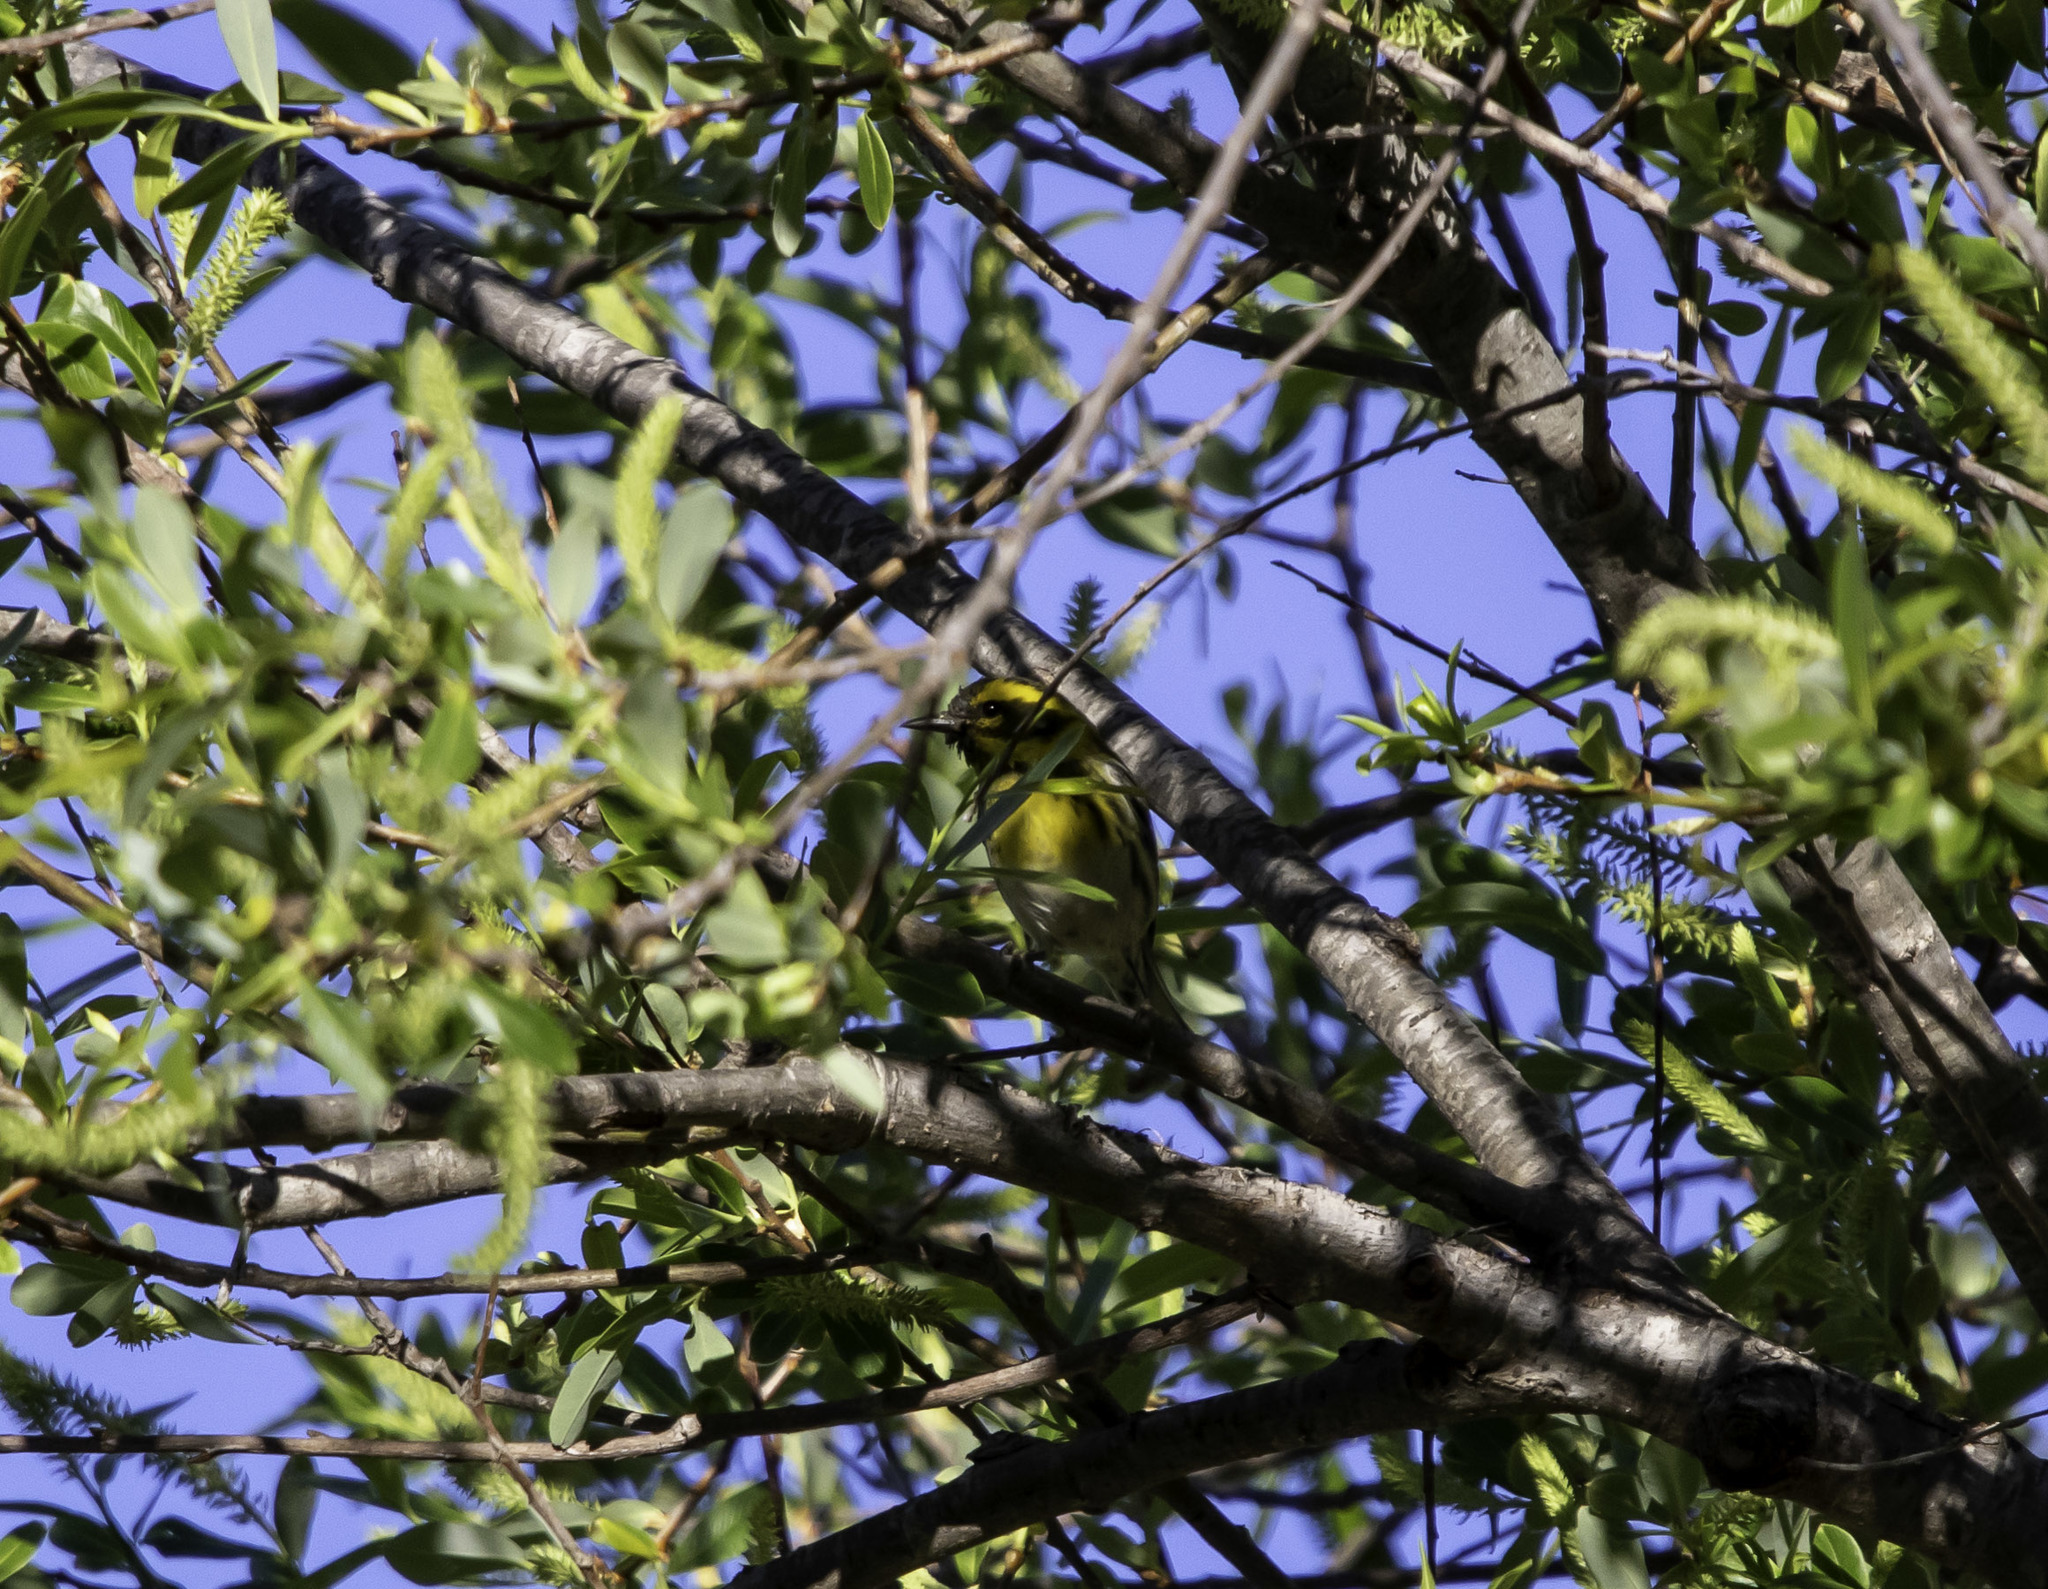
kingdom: Animalia
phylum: Chordata
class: Aves
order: Passeriformes
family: Parulidae
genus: Setophaga
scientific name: Setophaga townsendi
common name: Townsend's warbler
